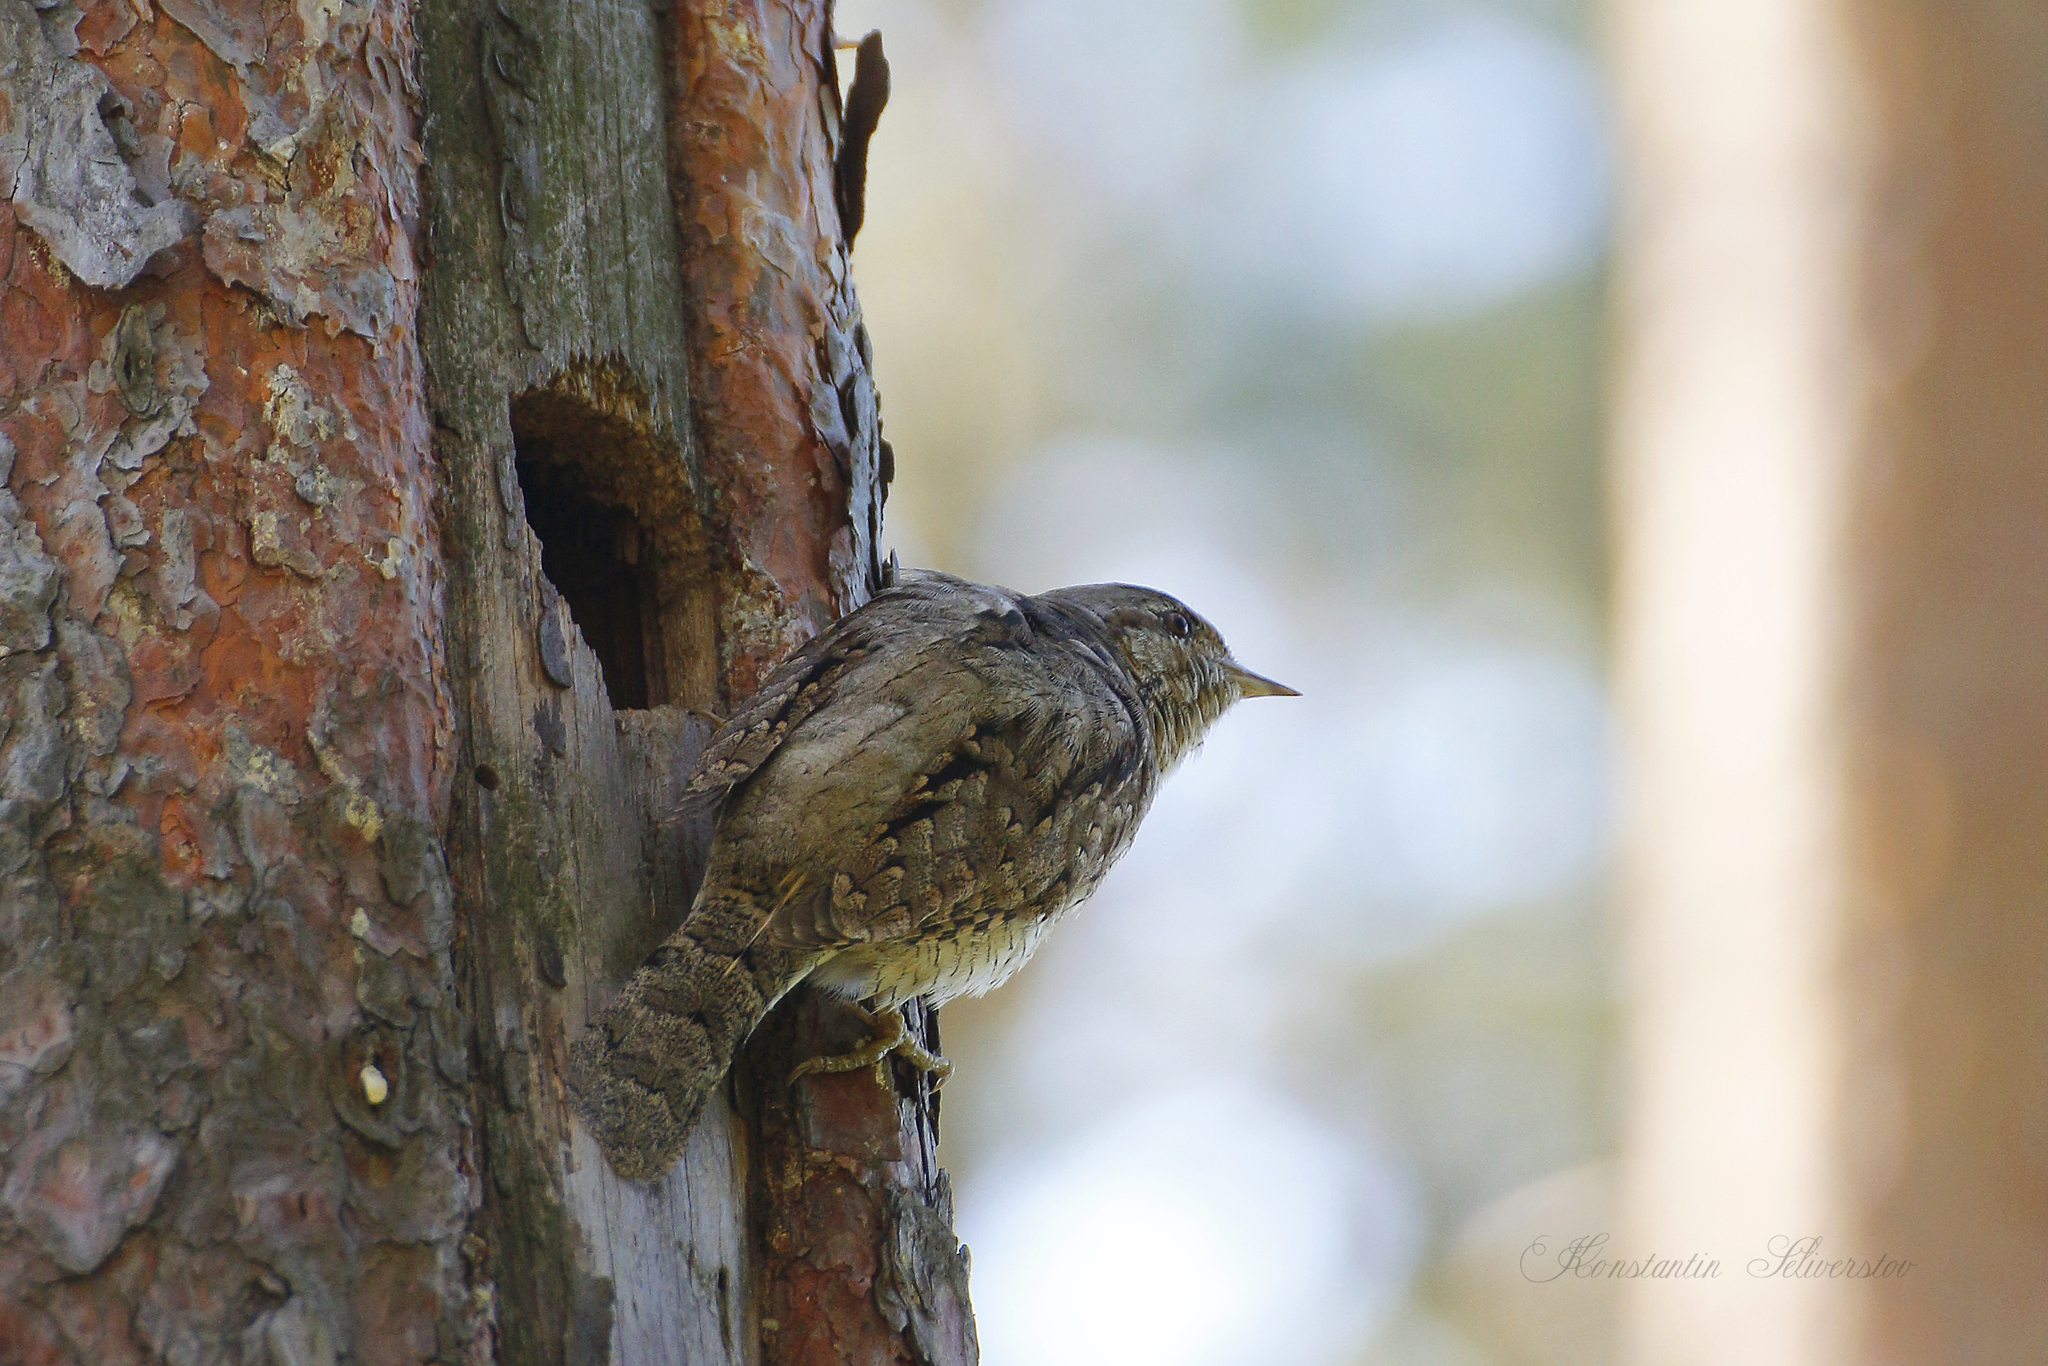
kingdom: Animalia
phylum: Chordata
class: Aves
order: Piciformes
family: Picidae
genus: Jynx
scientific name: Jynx torquilla
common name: Eurasian wryneck
